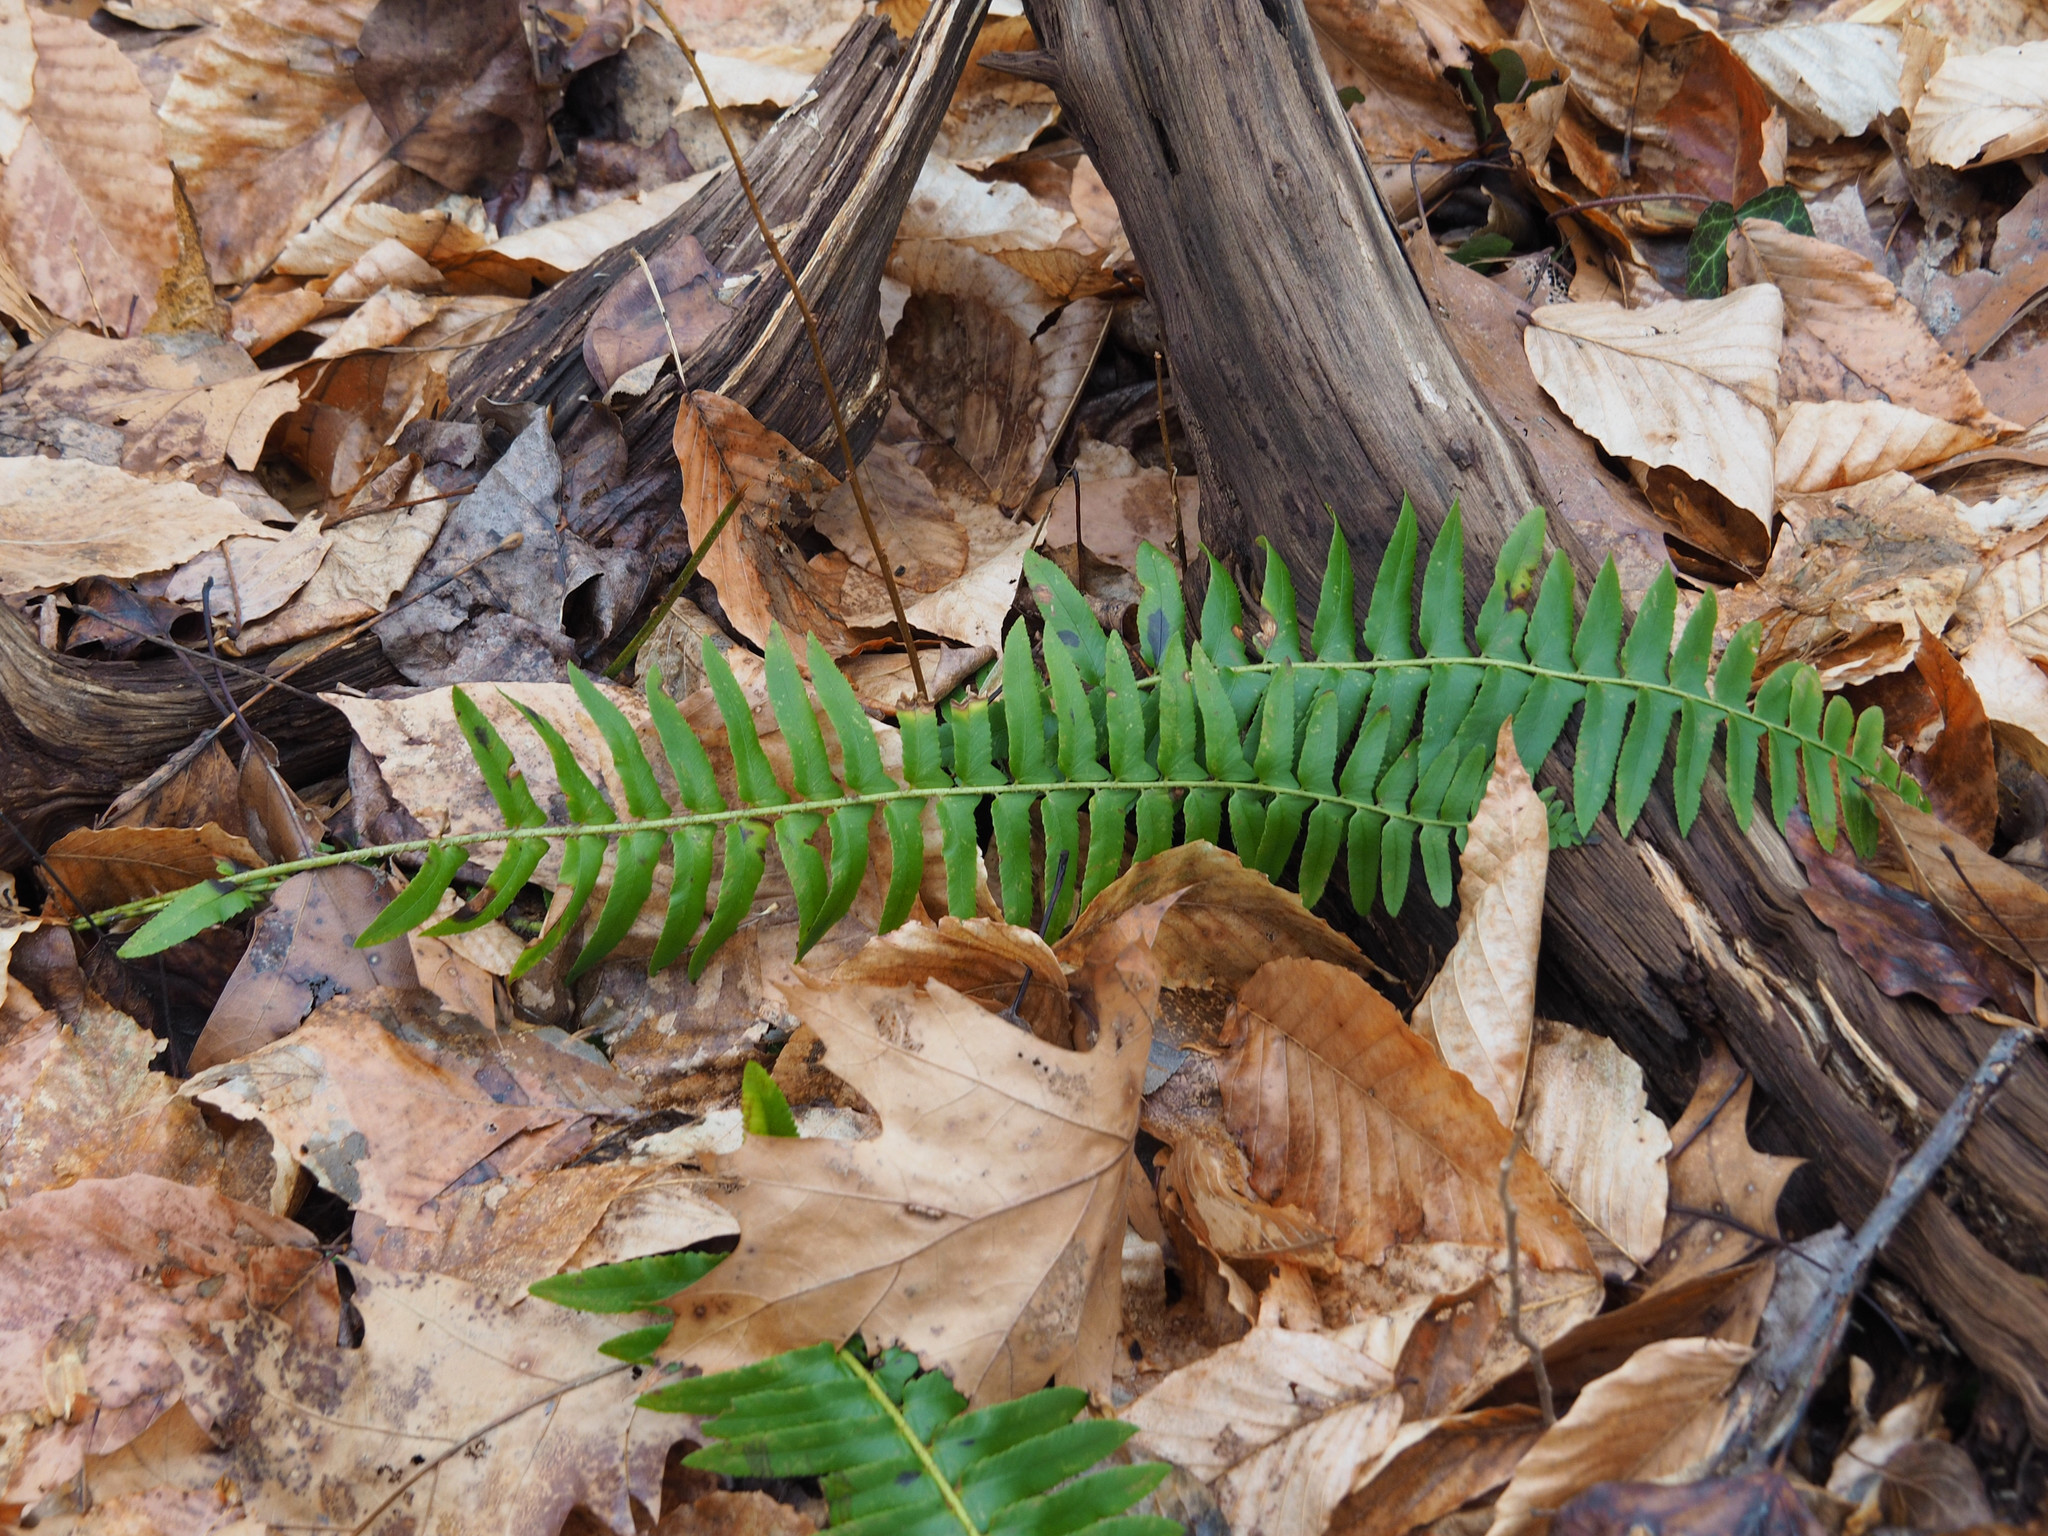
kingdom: Plantae
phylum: Tracheophyta
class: Polypodiopsida
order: Polypodiales
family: Dryopteridaceae
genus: Polystichum
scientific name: Polystichum acrostichoides
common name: Christmas fern
